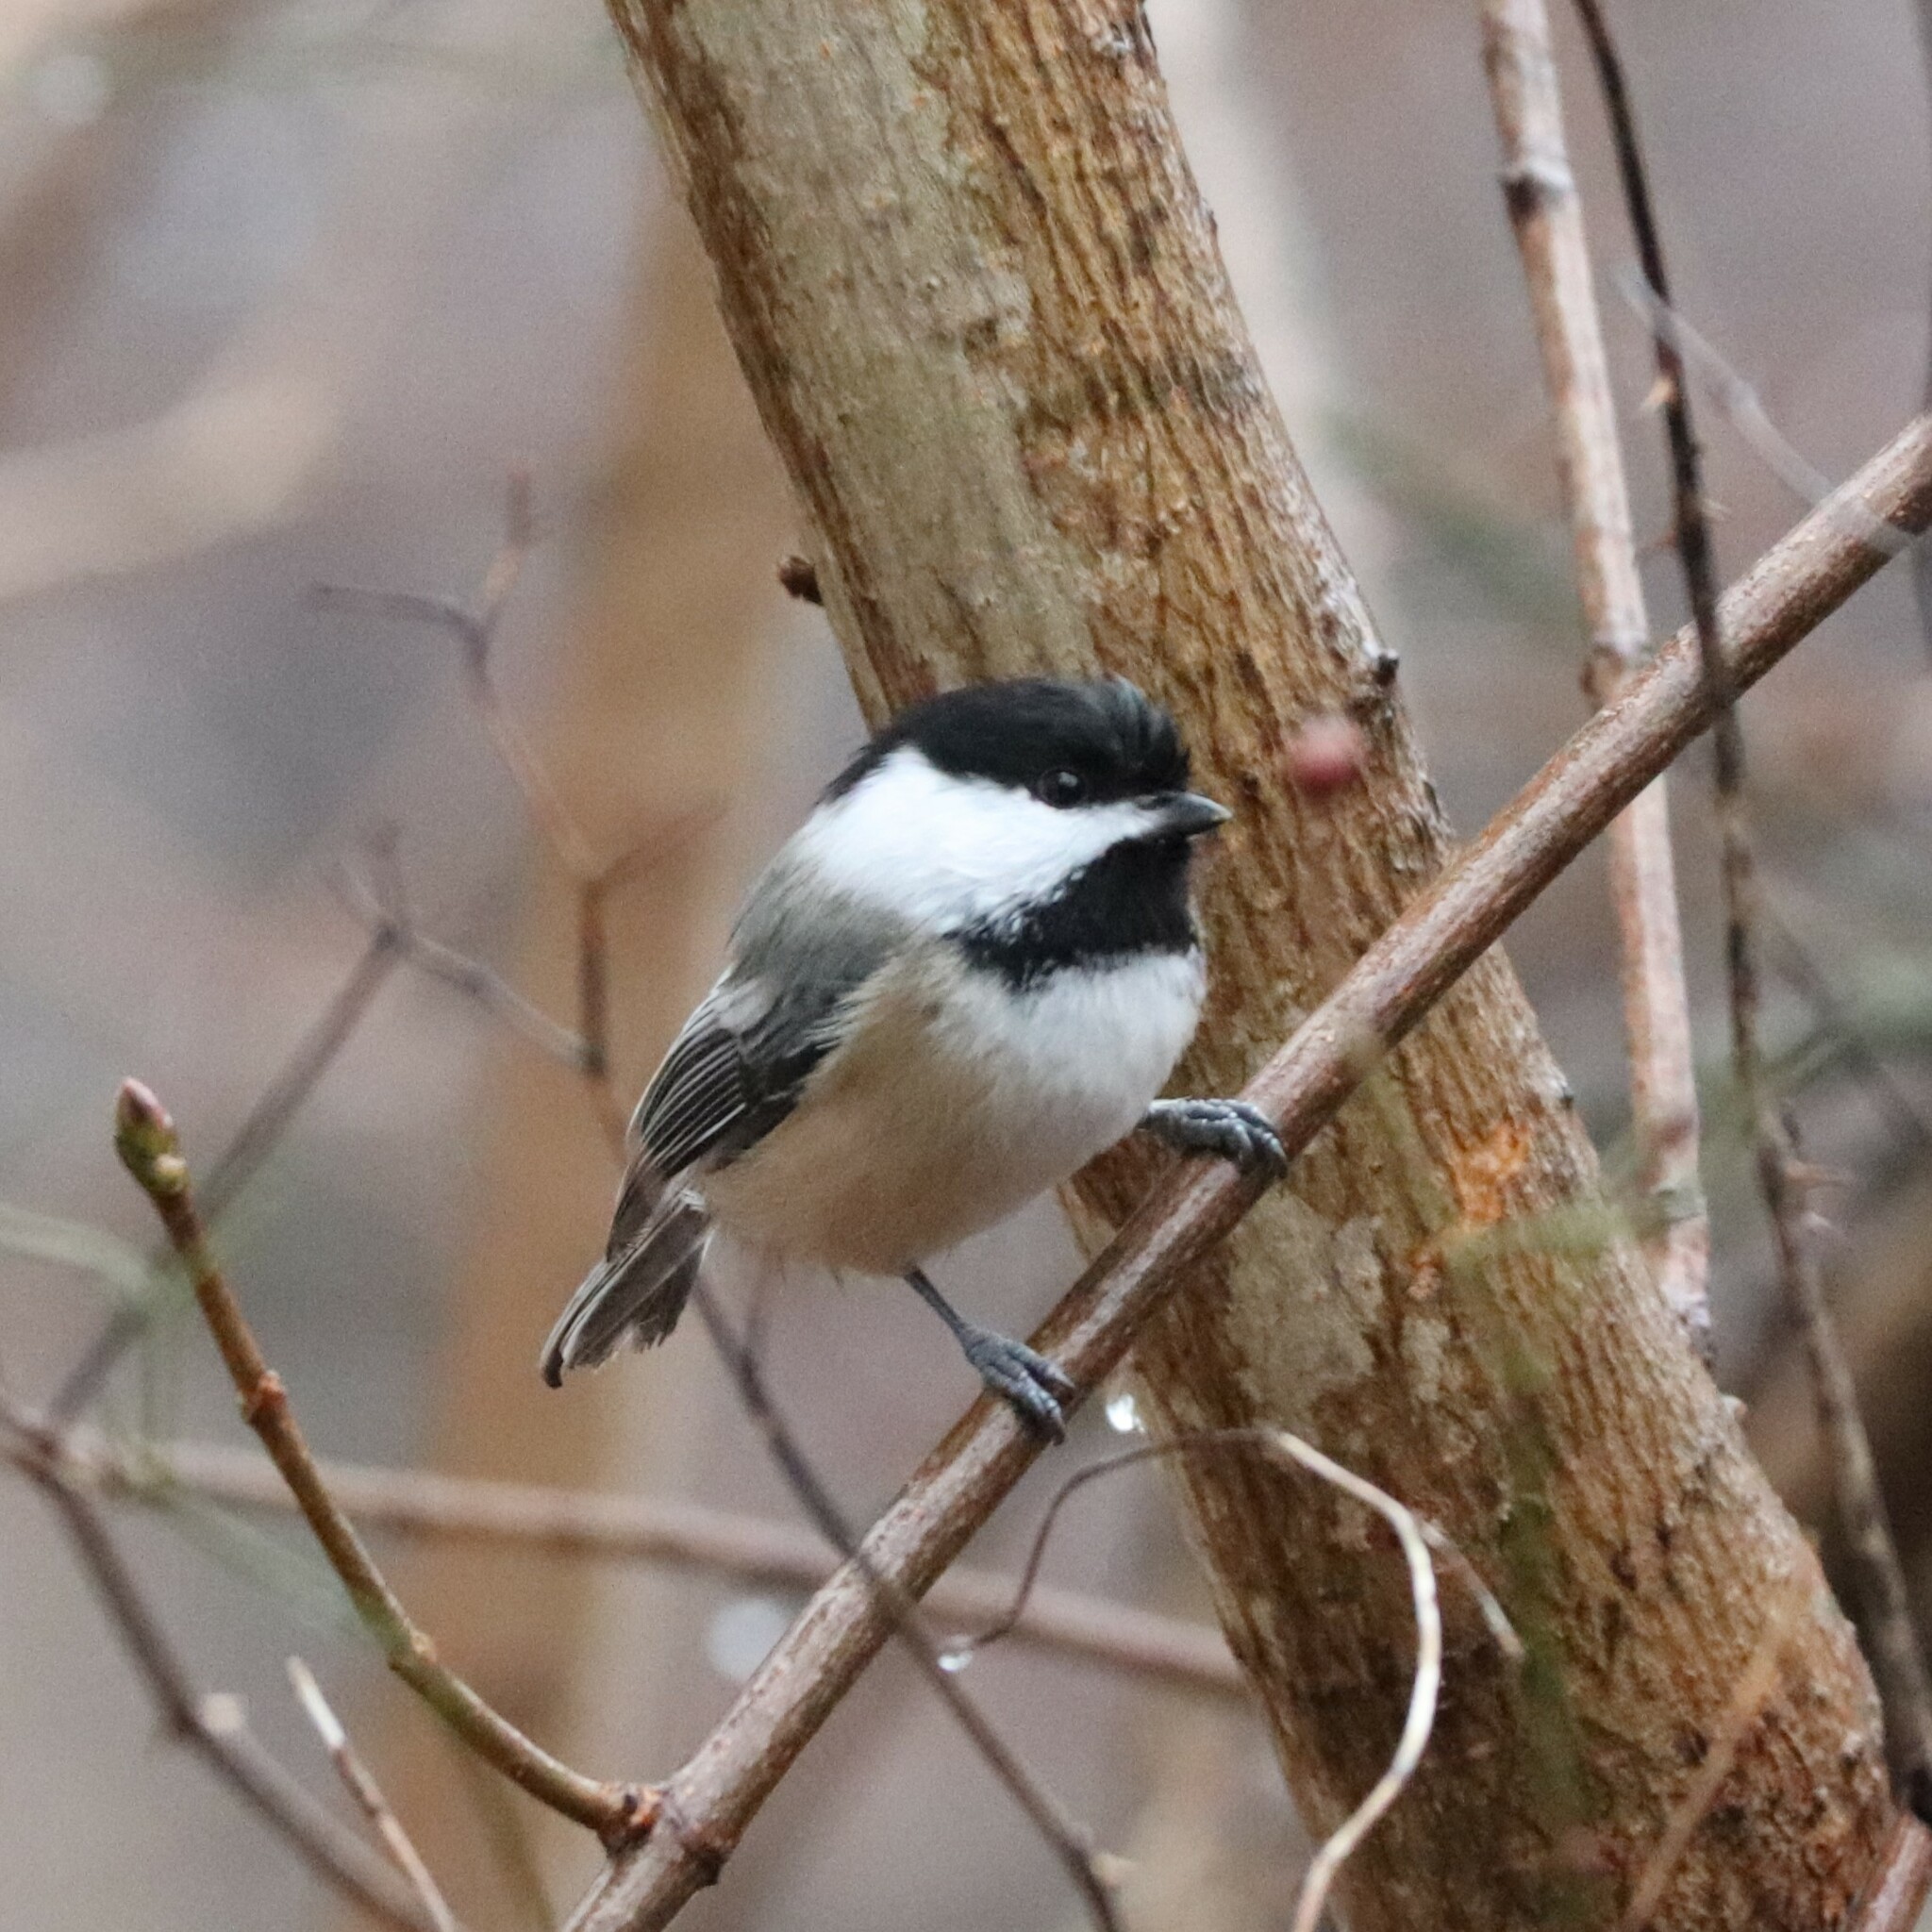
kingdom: Animalia
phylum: Chordata
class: Aves
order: Passeriformes
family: Paridae
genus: Poecile
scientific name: Poecile atricapillus
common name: Black-capped chickadee
